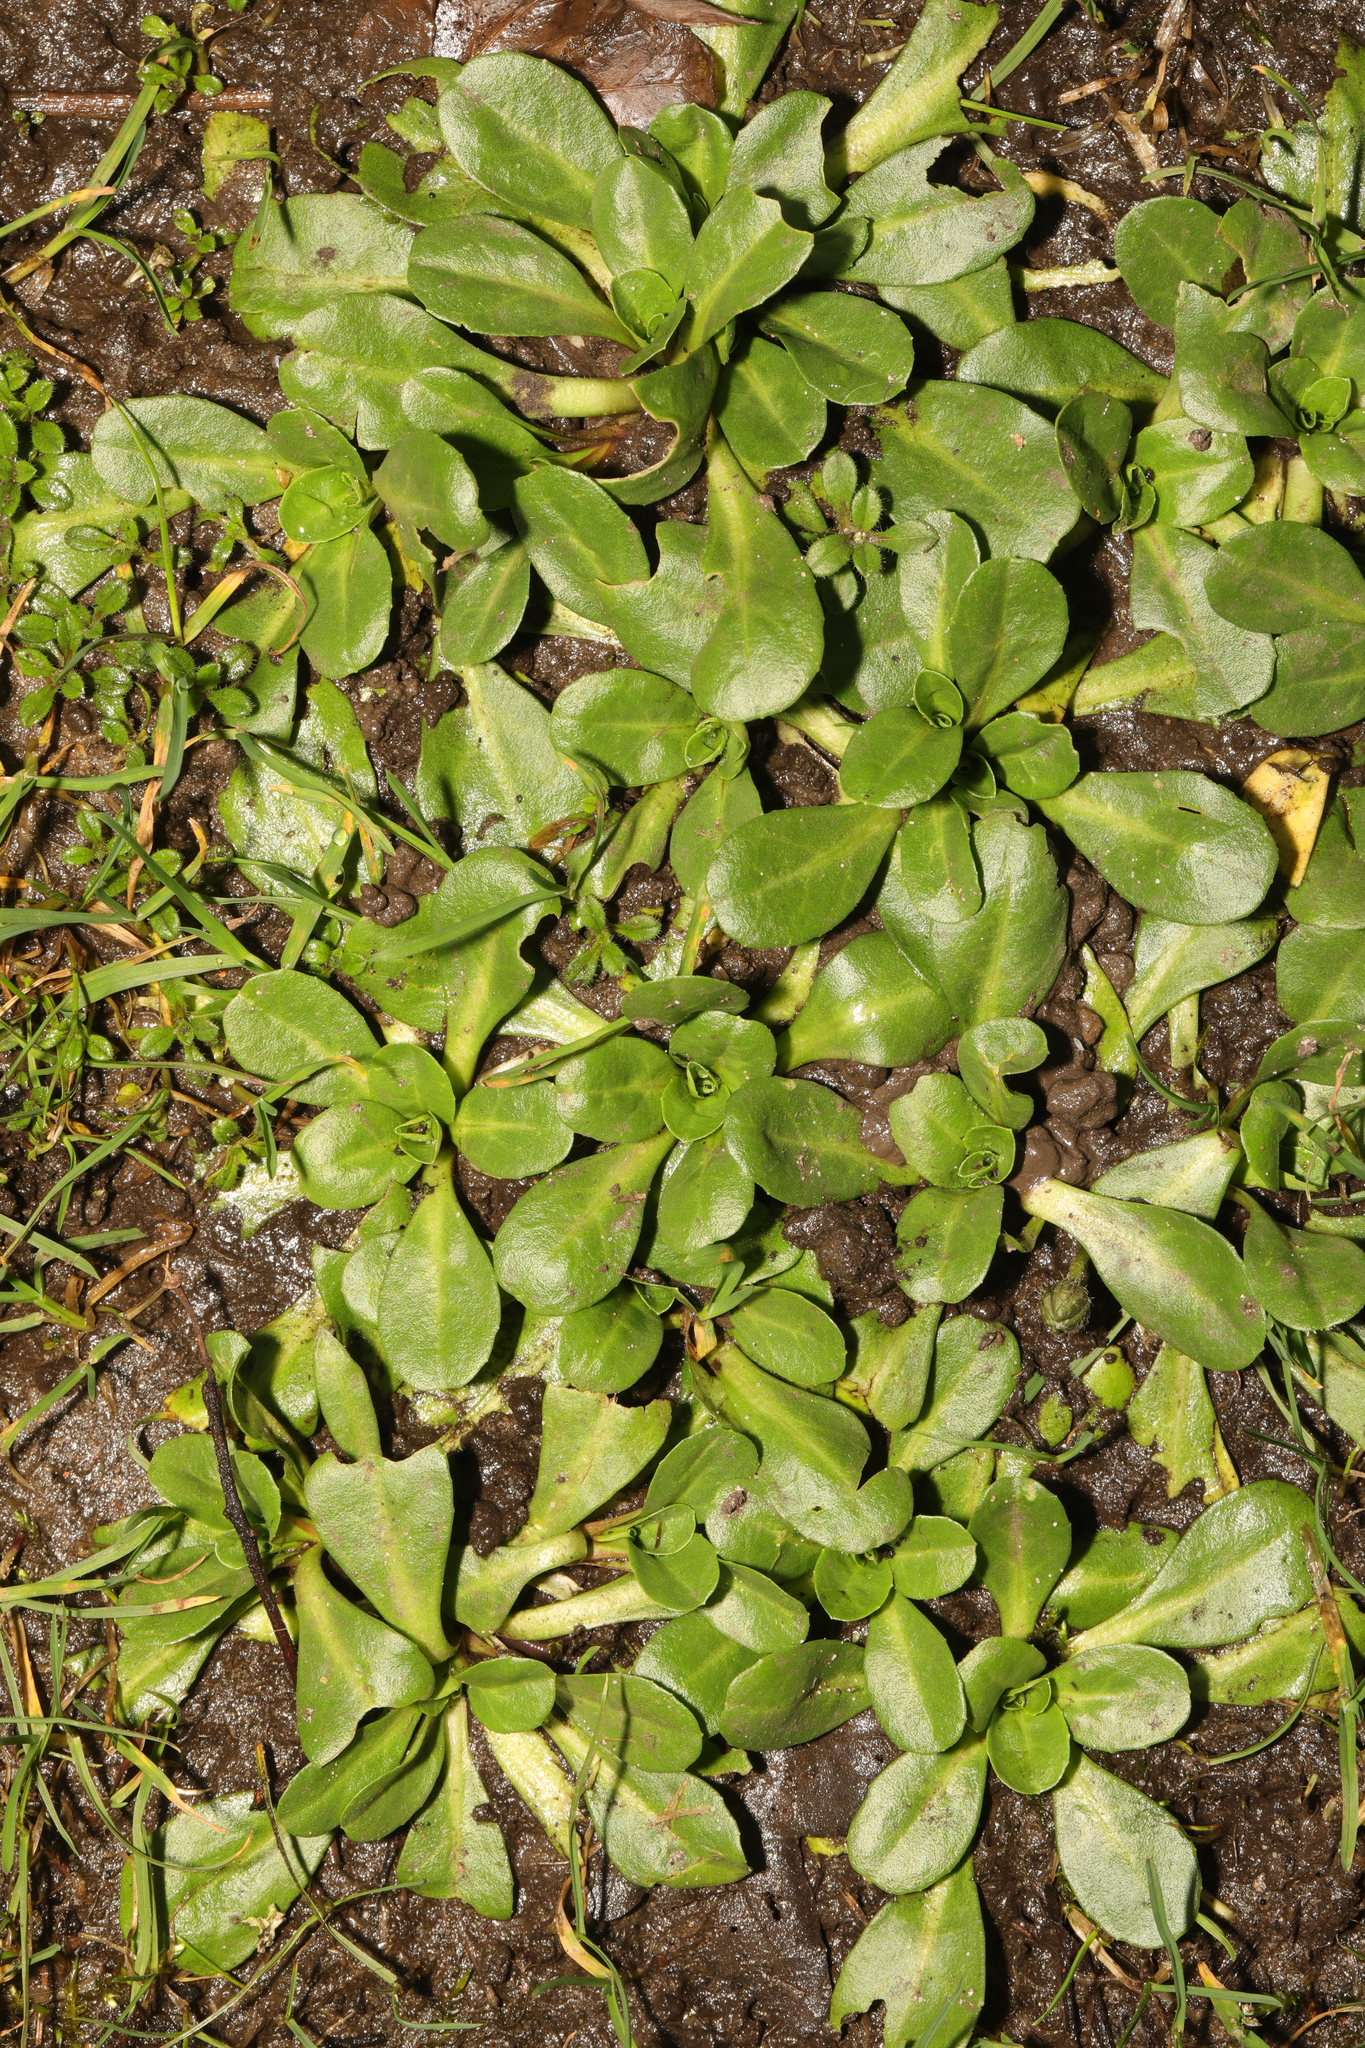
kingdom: Plantae
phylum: Tracheophyta
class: Magnoliopsida
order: Asterales
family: Asteraceae
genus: Bellis
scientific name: Bellis perennis
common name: Lawndaisy
